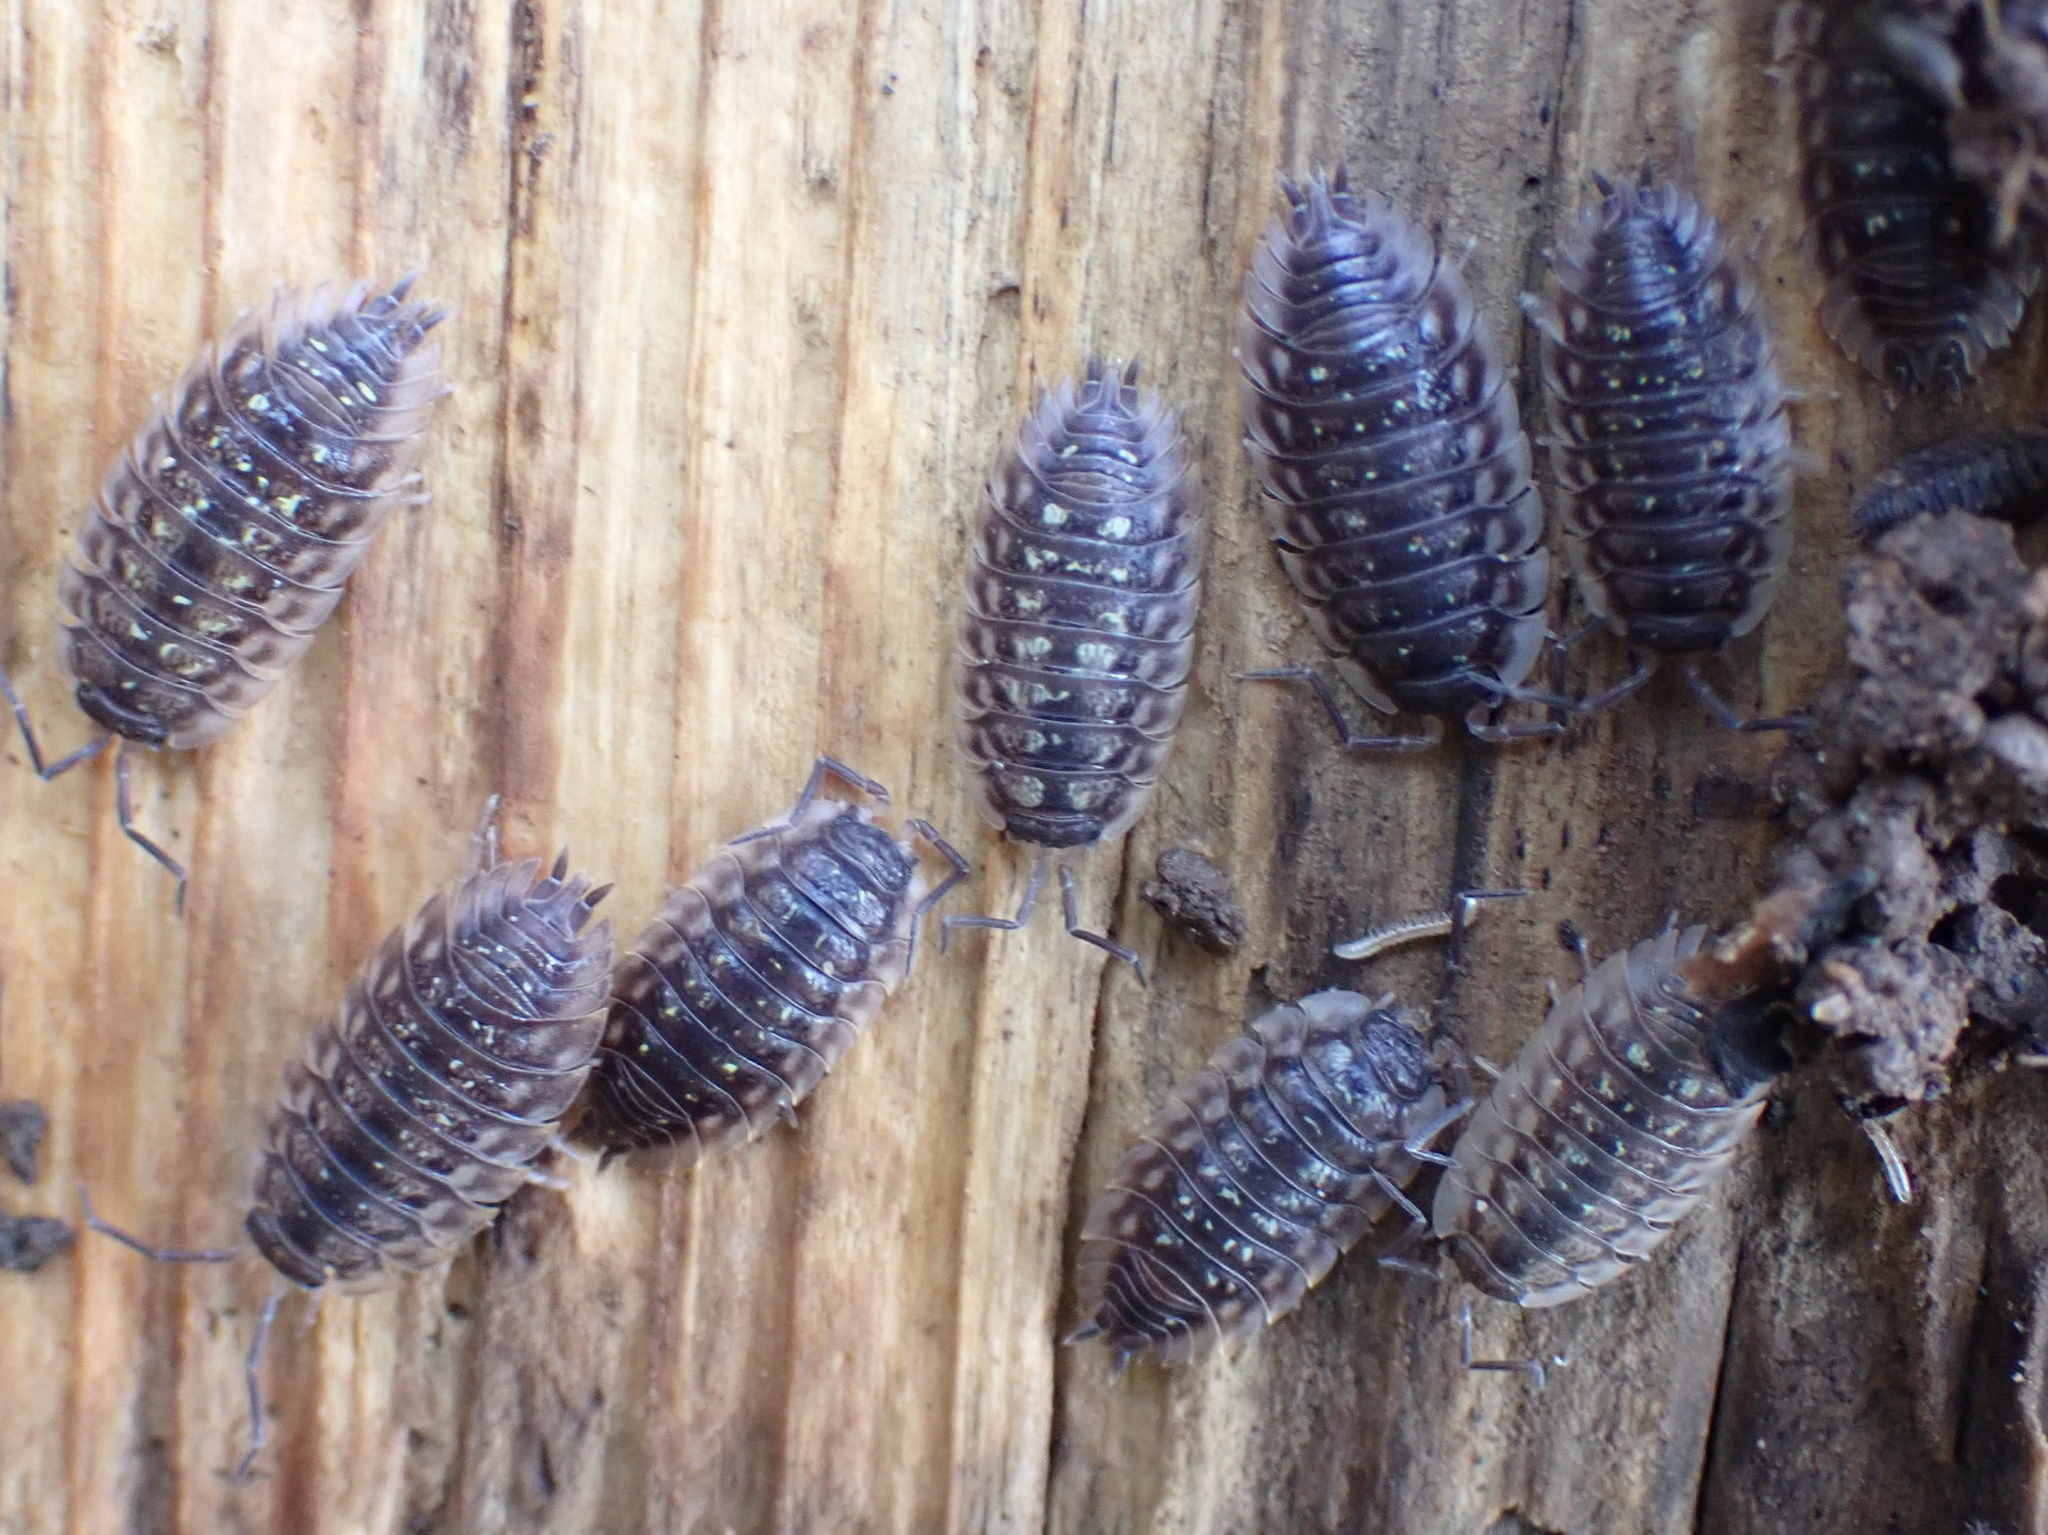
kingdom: Animalia
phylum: Arthropoda
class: Malacostraca
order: Isopoda
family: Oniscidae
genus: Oniscus
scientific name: Oniscus asellus
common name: Common shiny woodlouse
